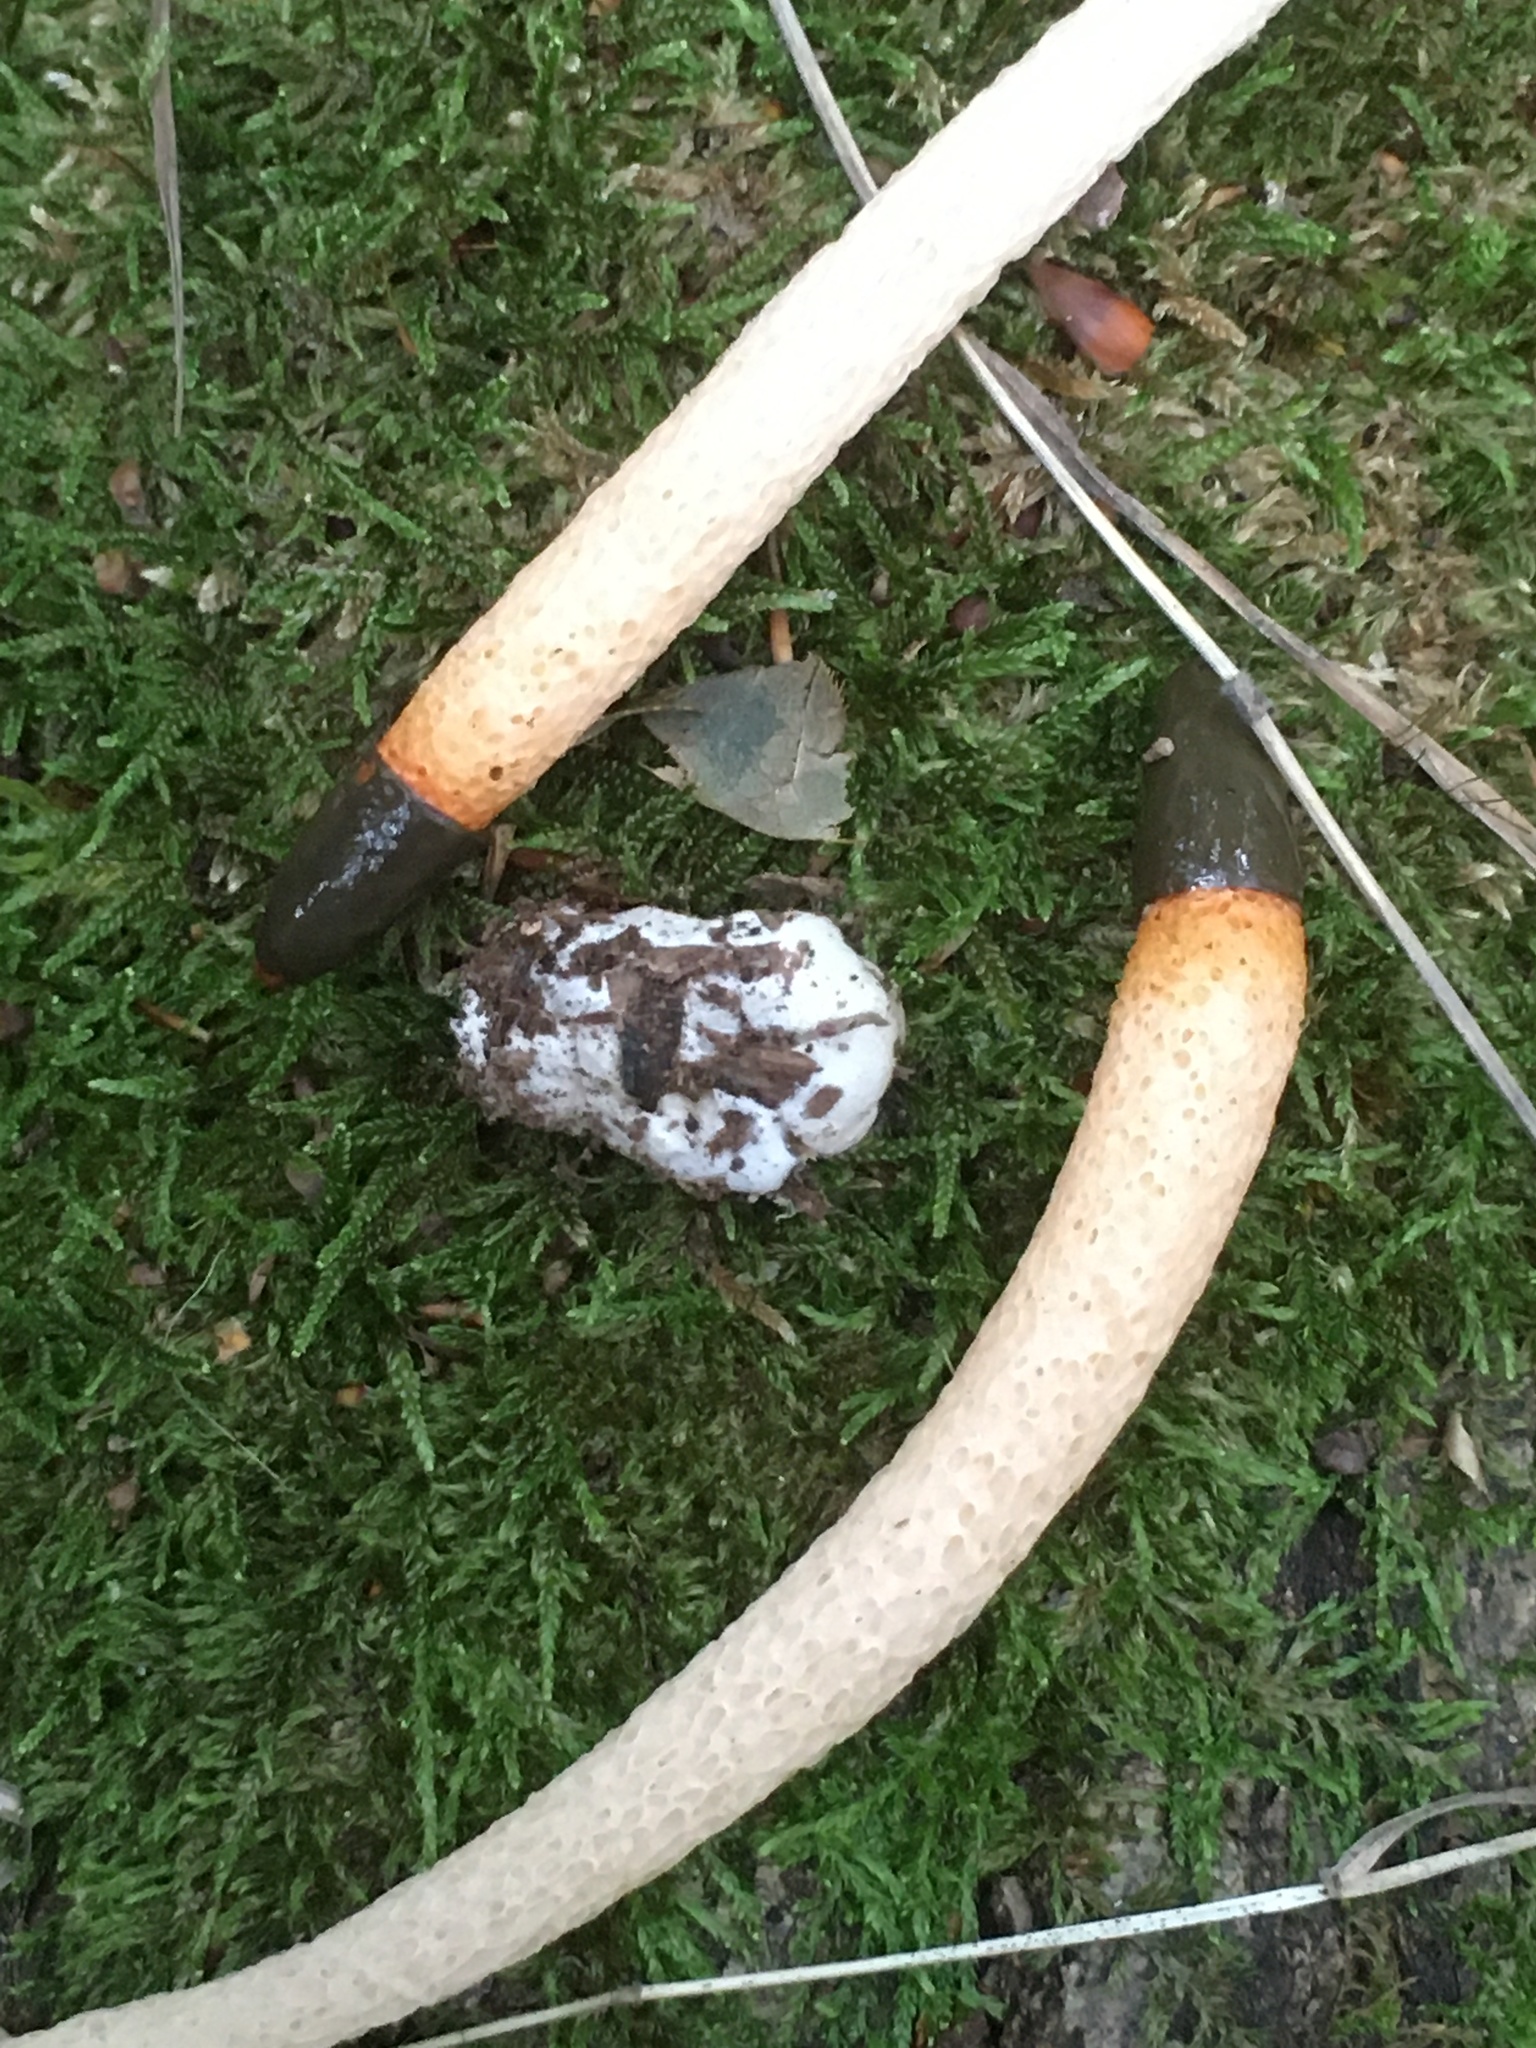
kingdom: Fungi
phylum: Basidiomycota
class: Agaricomycetes
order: Phallales
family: Phallaceae
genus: Mutinus
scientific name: Mutinus caninus
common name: Dog stinkhorn
